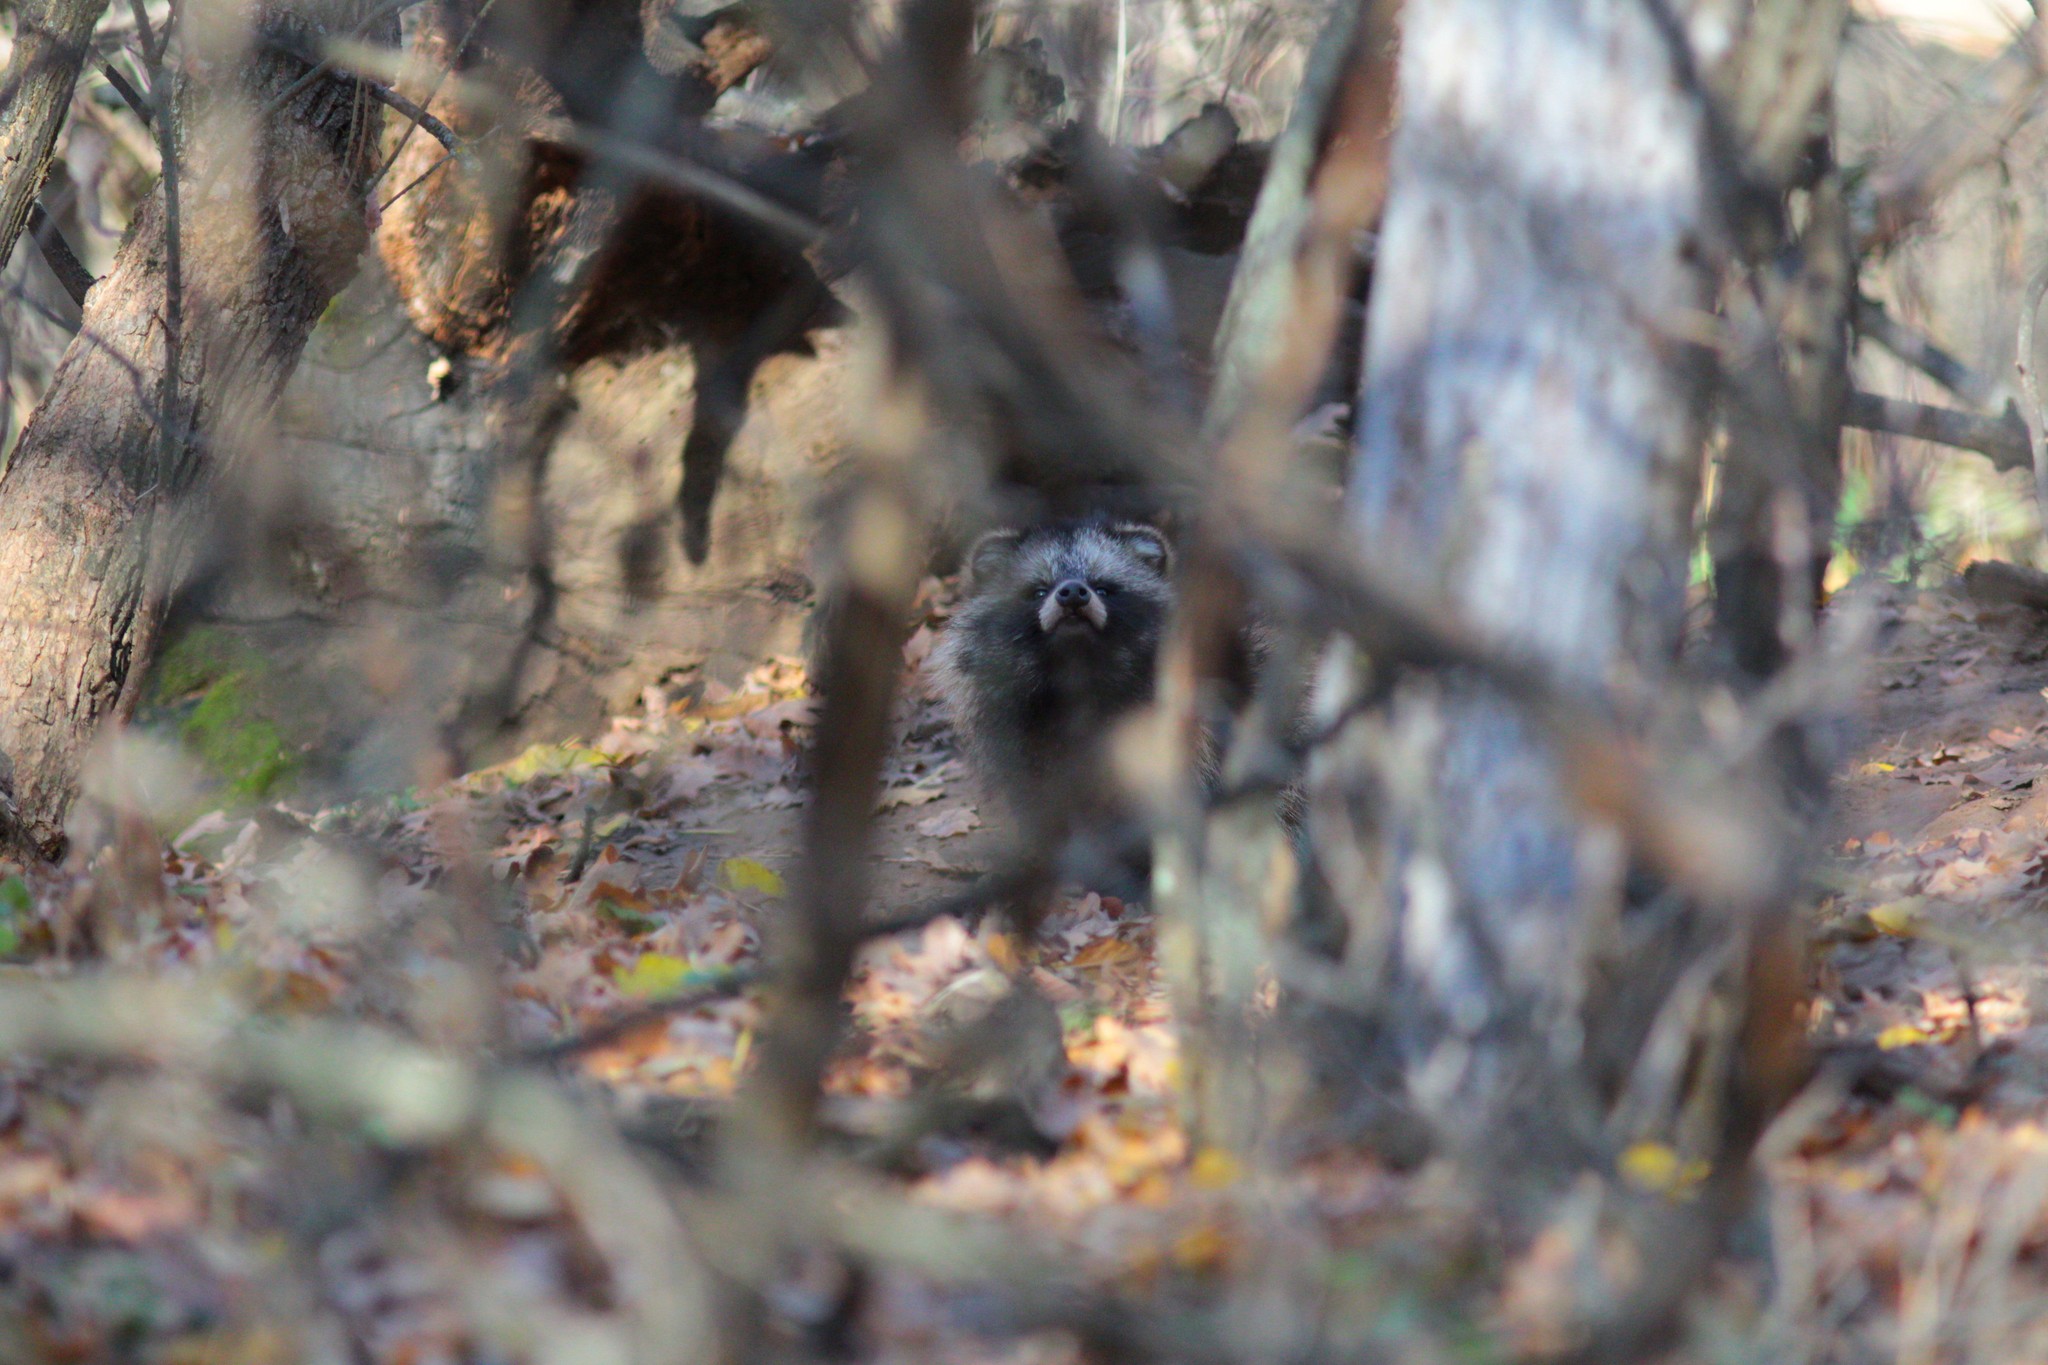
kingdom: Animalia
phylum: Chordata
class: Mammalia
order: Carnivora
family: Canidae
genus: Nyctereutes
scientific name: Nyctereutes procyonoides
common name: Raccoon dog
